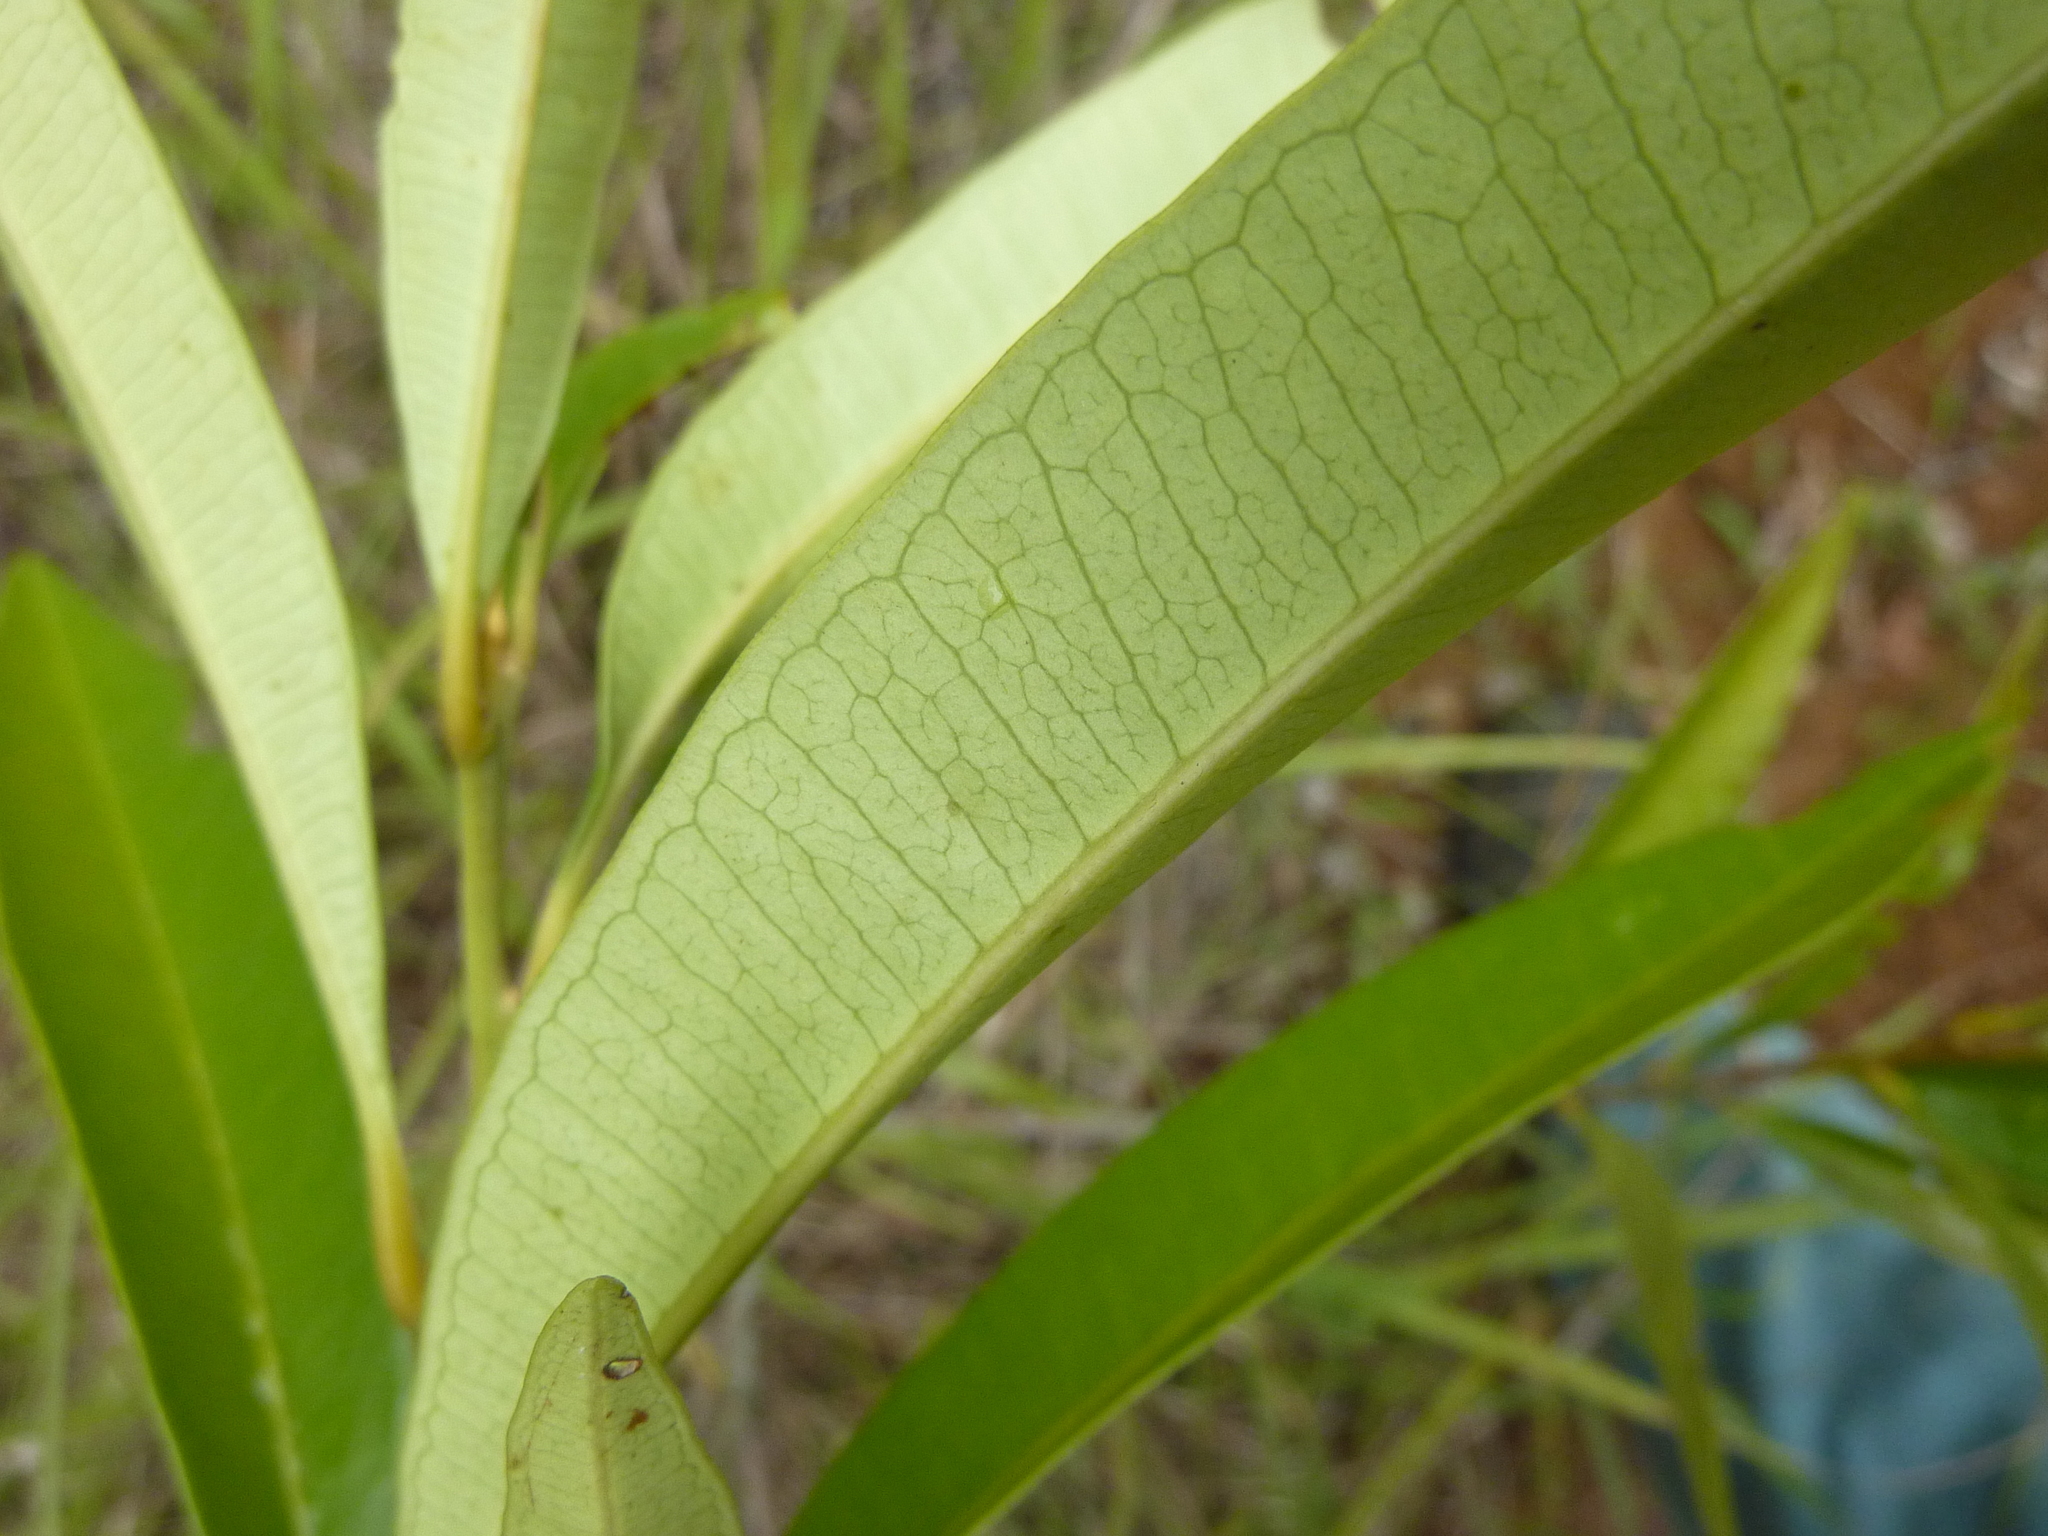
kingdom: Plantae
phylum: Tracheophyta
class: Magnoliopsida
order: Sapindales
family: Simaroubaceae
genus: Samadera
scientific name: Samadera bidwillii
